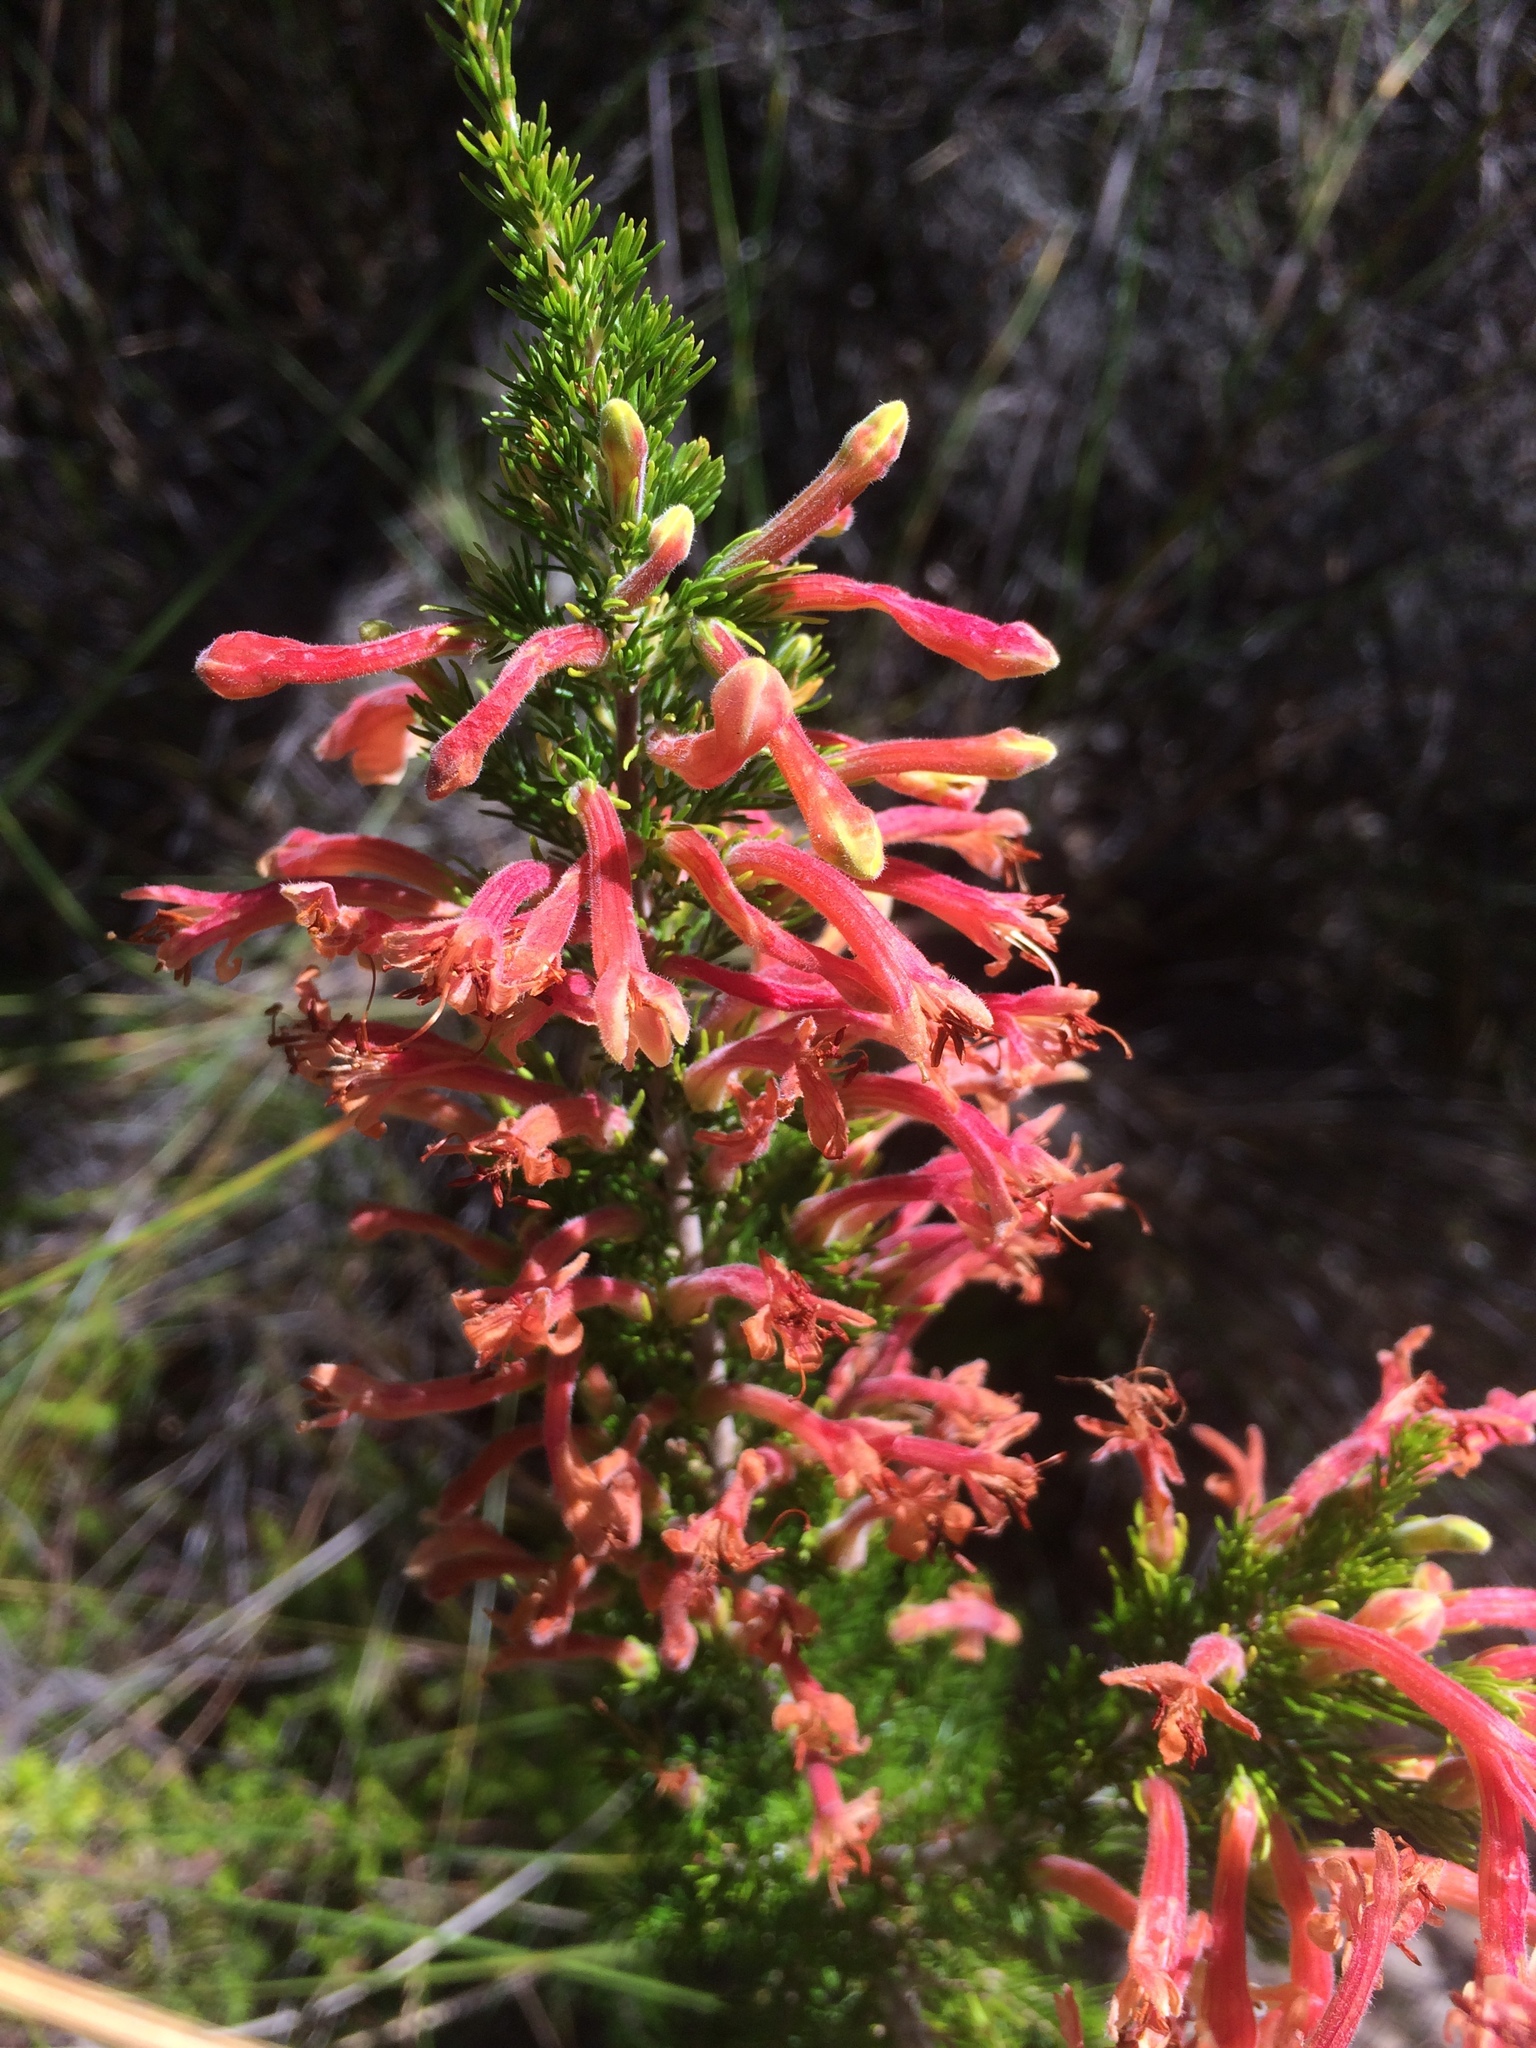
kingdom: Plantae
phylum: Tracheophyta
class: Magnoliopsida
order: Ericales
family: Ericaceae
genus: Erica
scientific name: Erica curviflora
